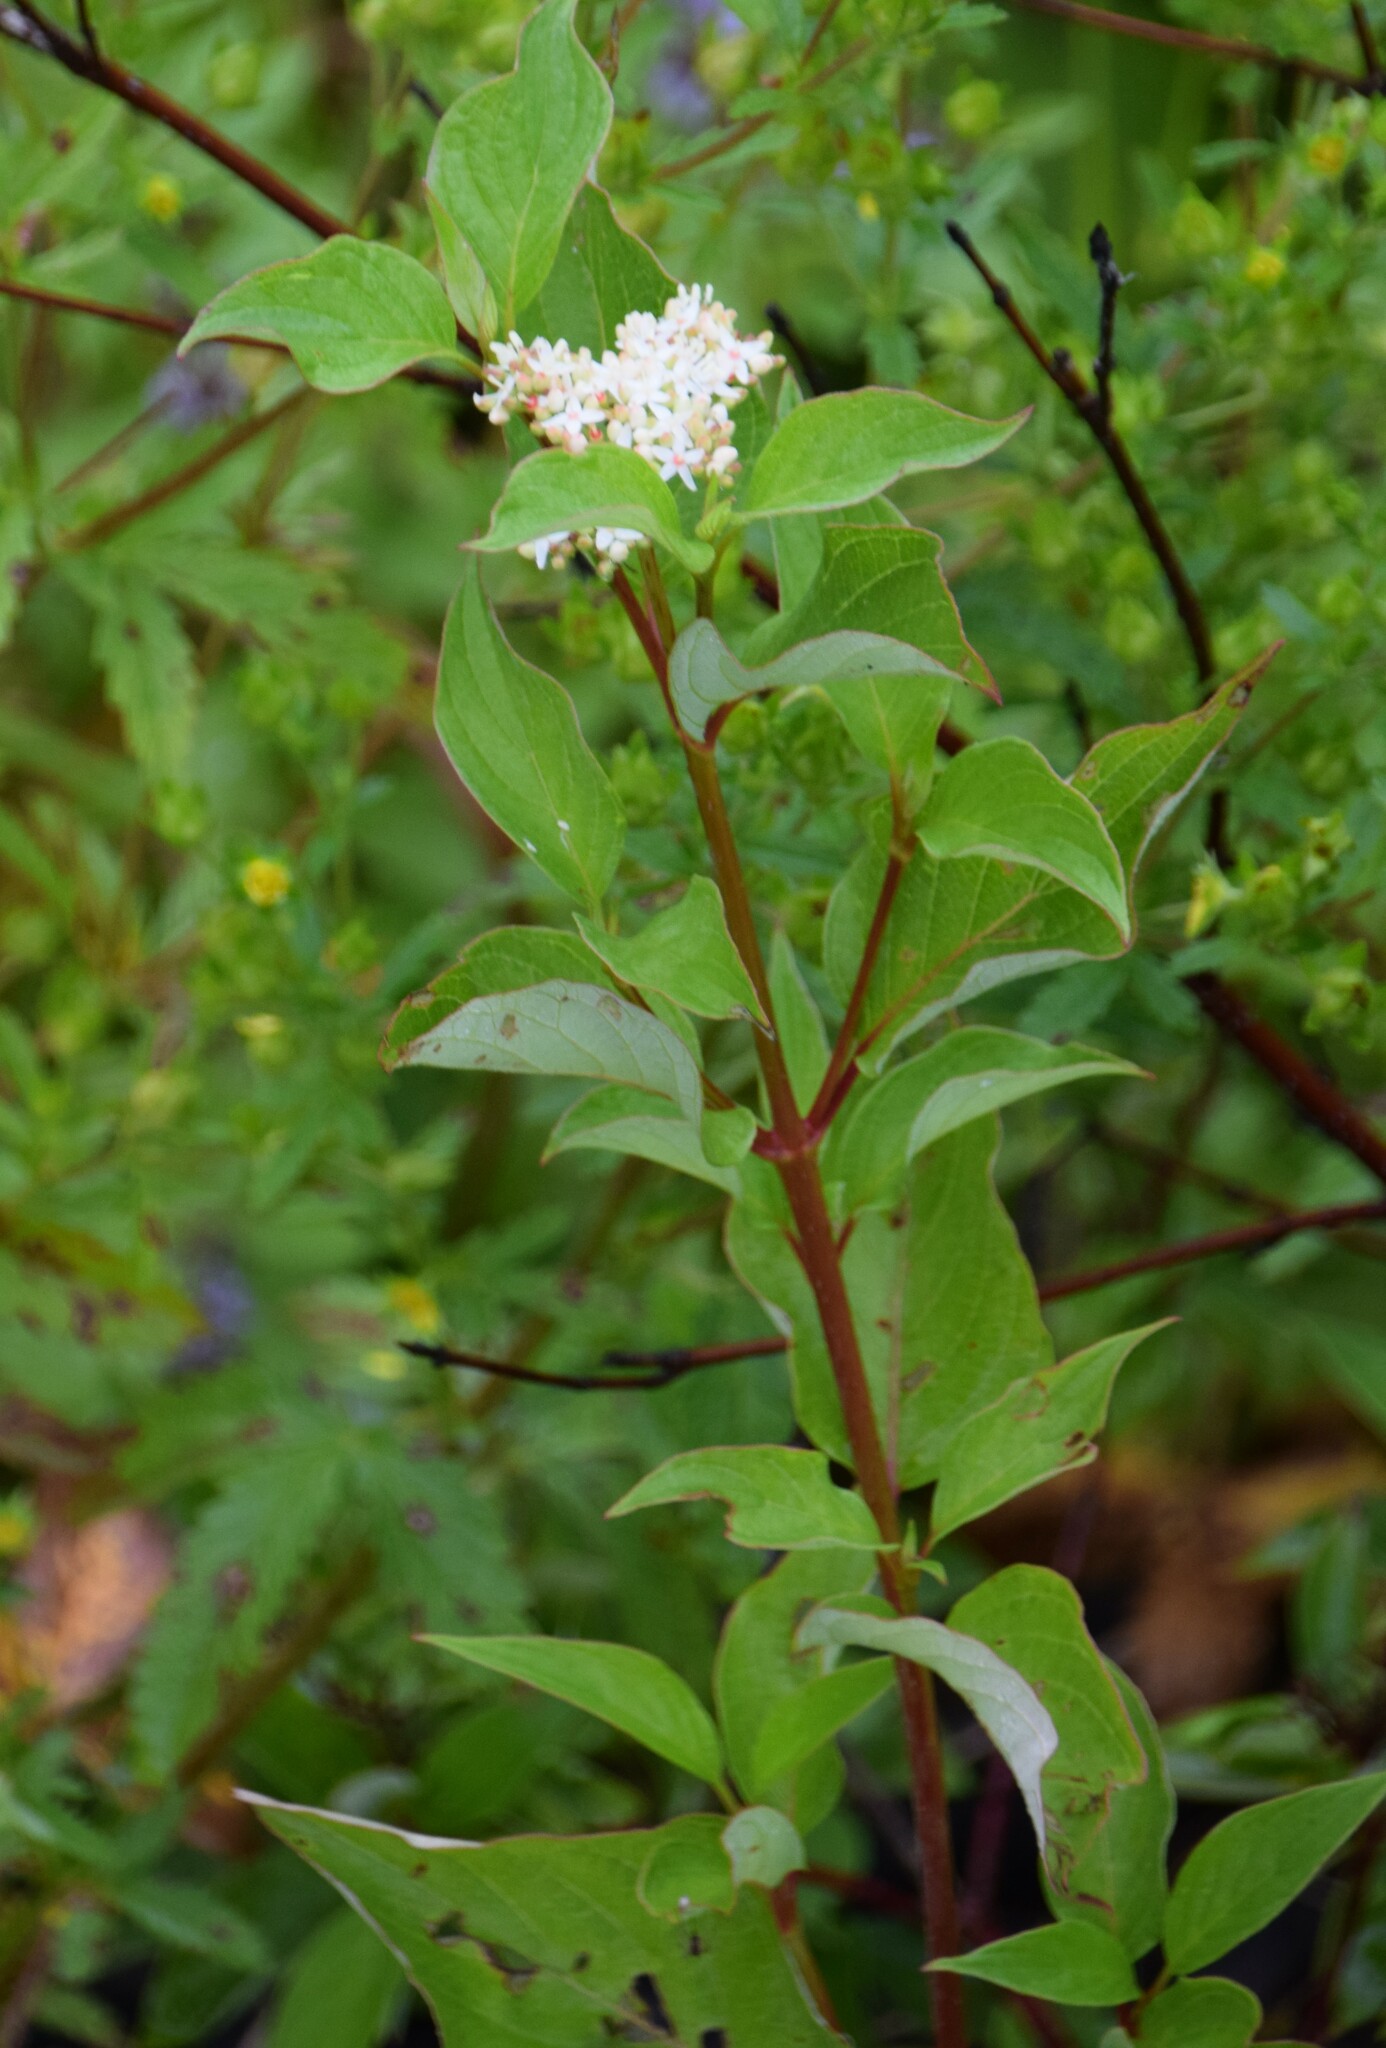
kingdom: Plantae
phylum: Tracheophyta
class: Magnoliopsida
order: Cornales
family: Cornaceae
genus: Cornus
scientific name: Cornus sericea
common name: Red-osier dogwood
